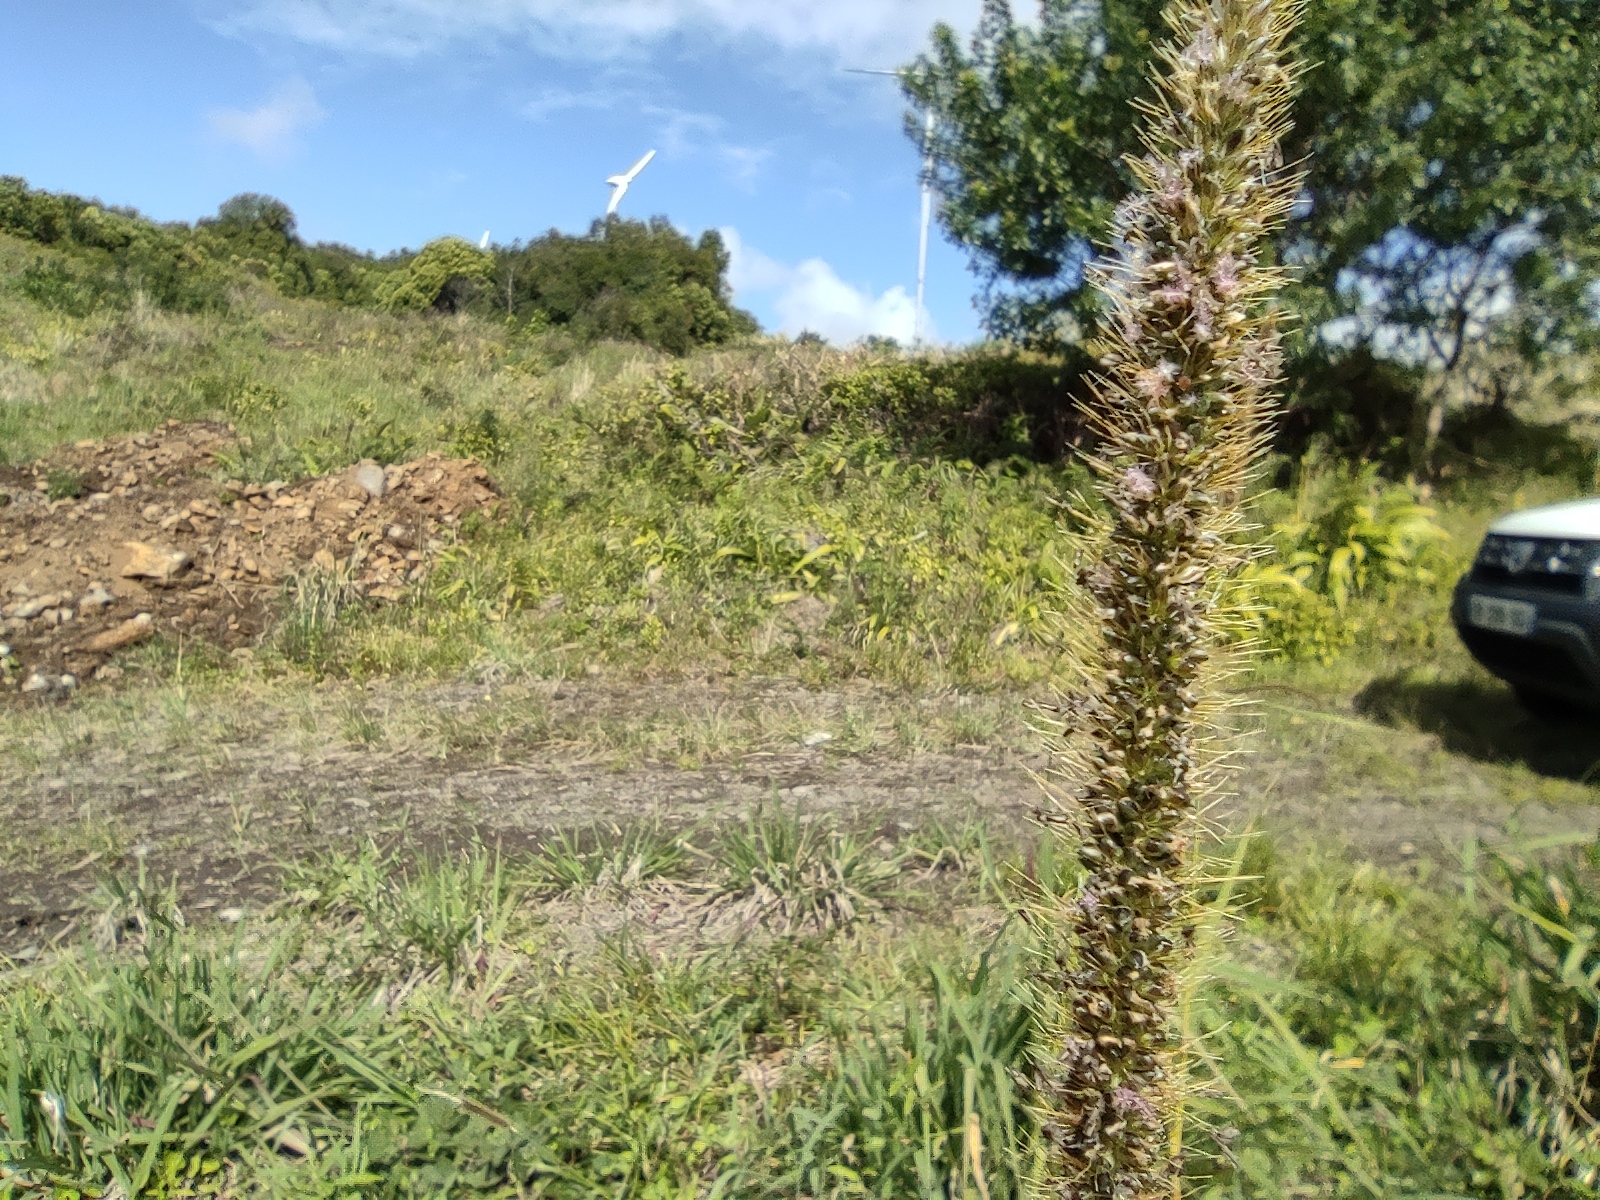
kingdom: Plantae
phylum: Tracheophyta
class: Liliopsida
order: Poales
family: Poaceae
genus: Setaria
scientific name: Setaria sphacelata
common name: African bristlegrass
